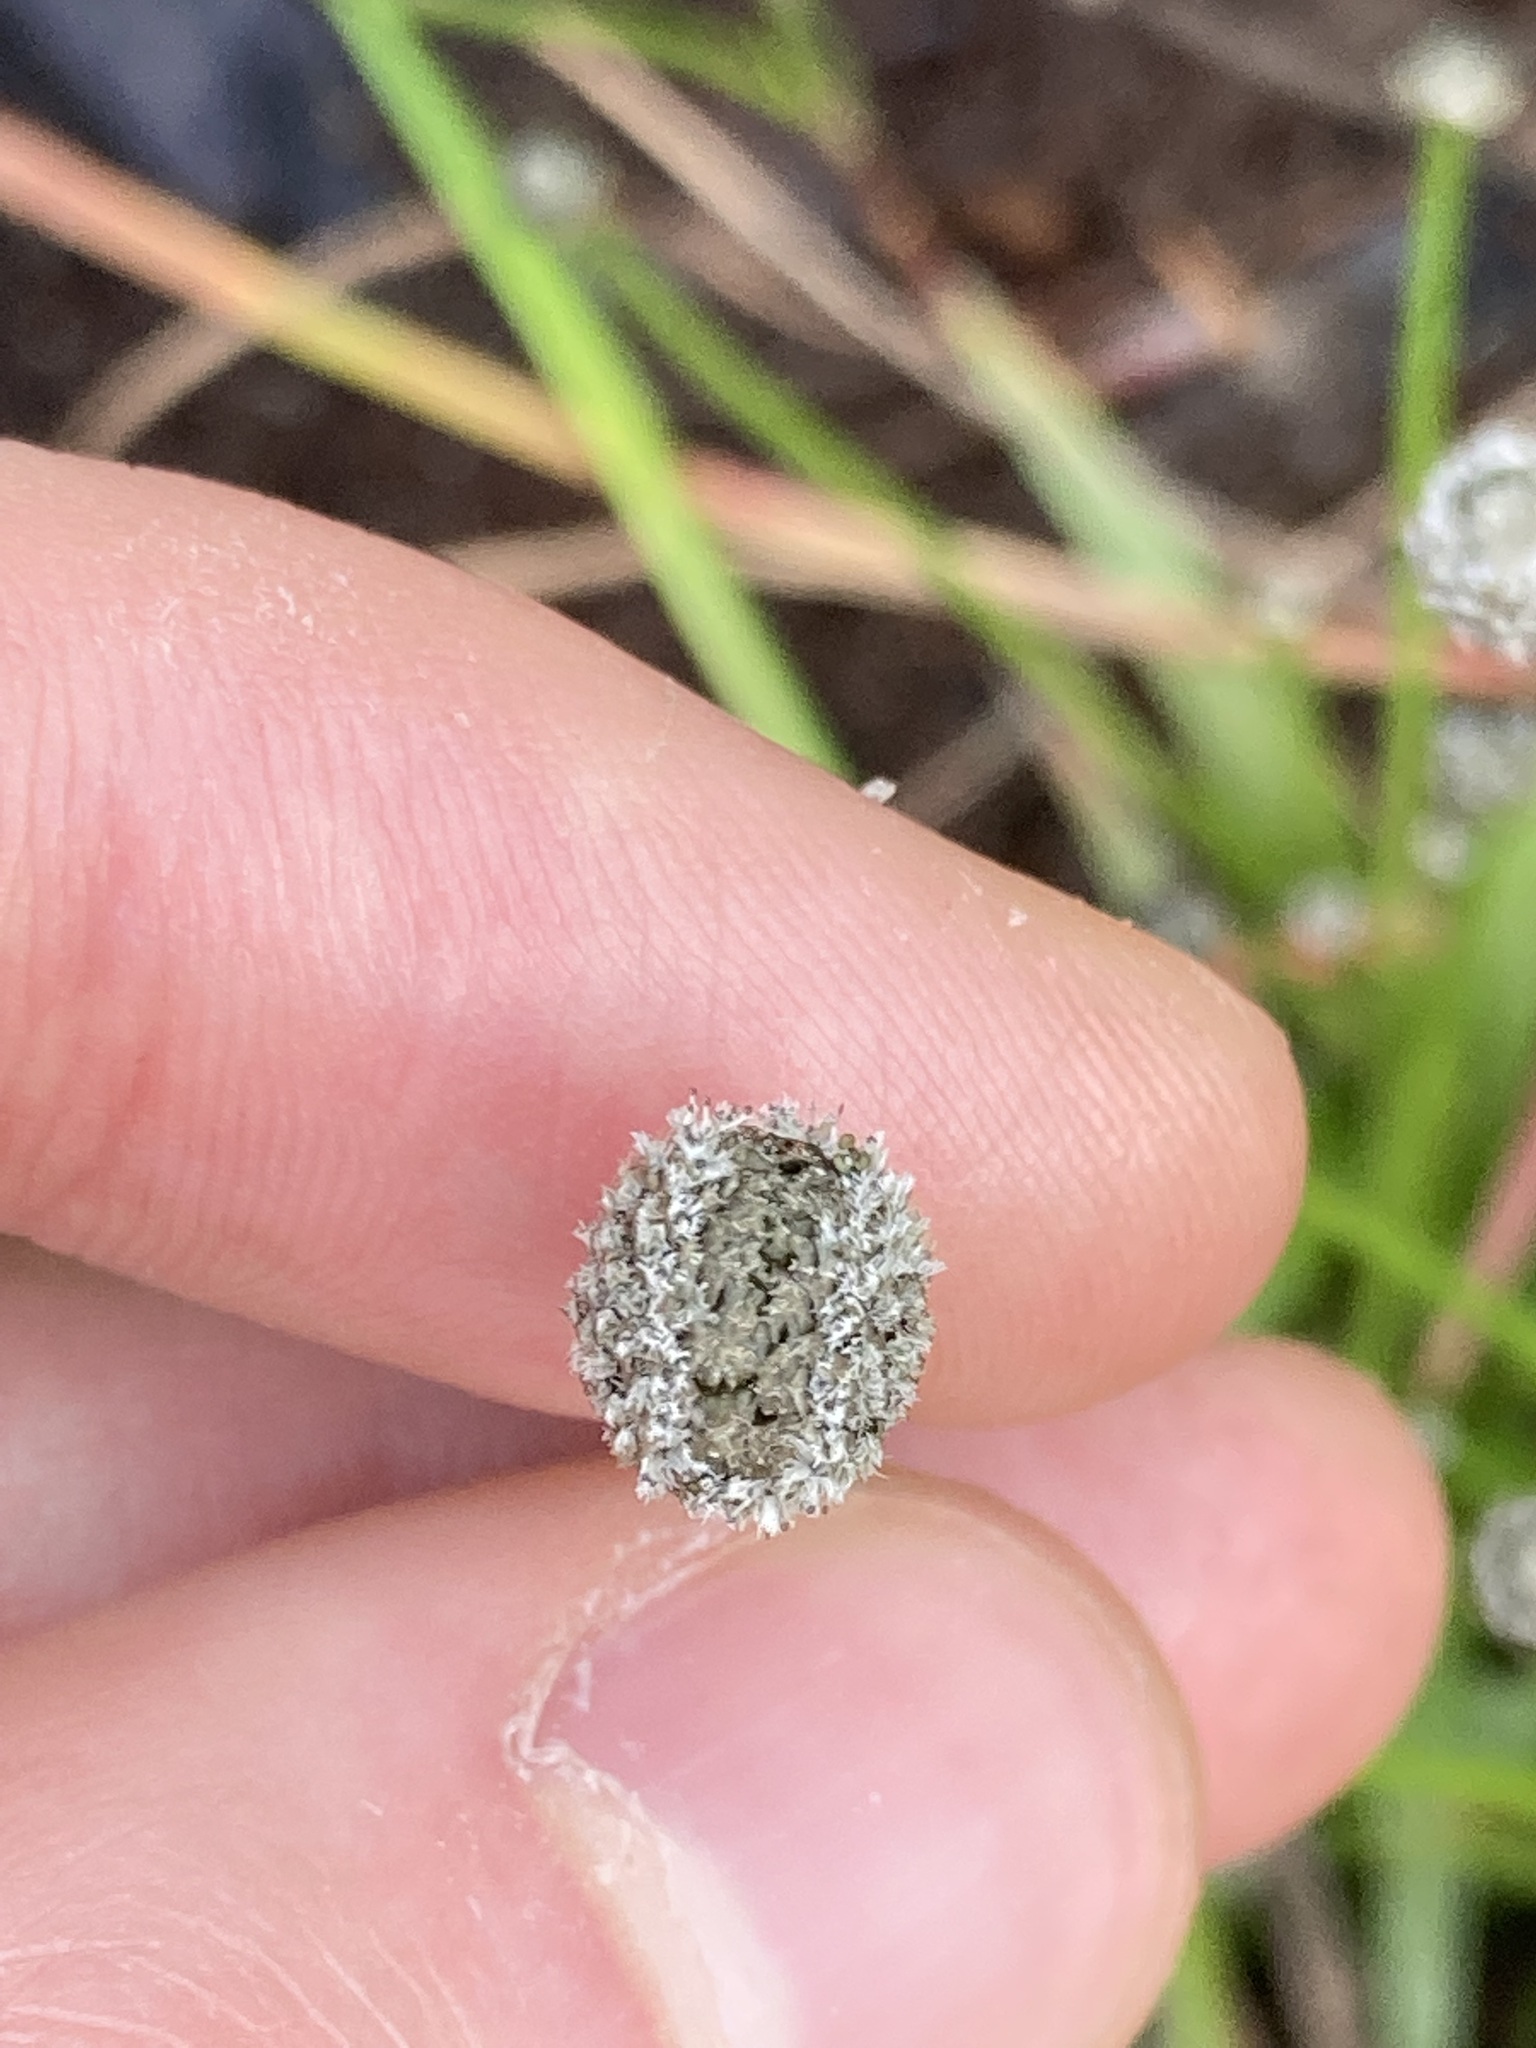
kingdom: Plantae
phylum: Tracheophyta
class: Liliopsida
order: Poales
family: Eriocaulaceae
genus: Eriocaulon
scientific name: Eriocaulon scariosum
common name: Rough pipewort
